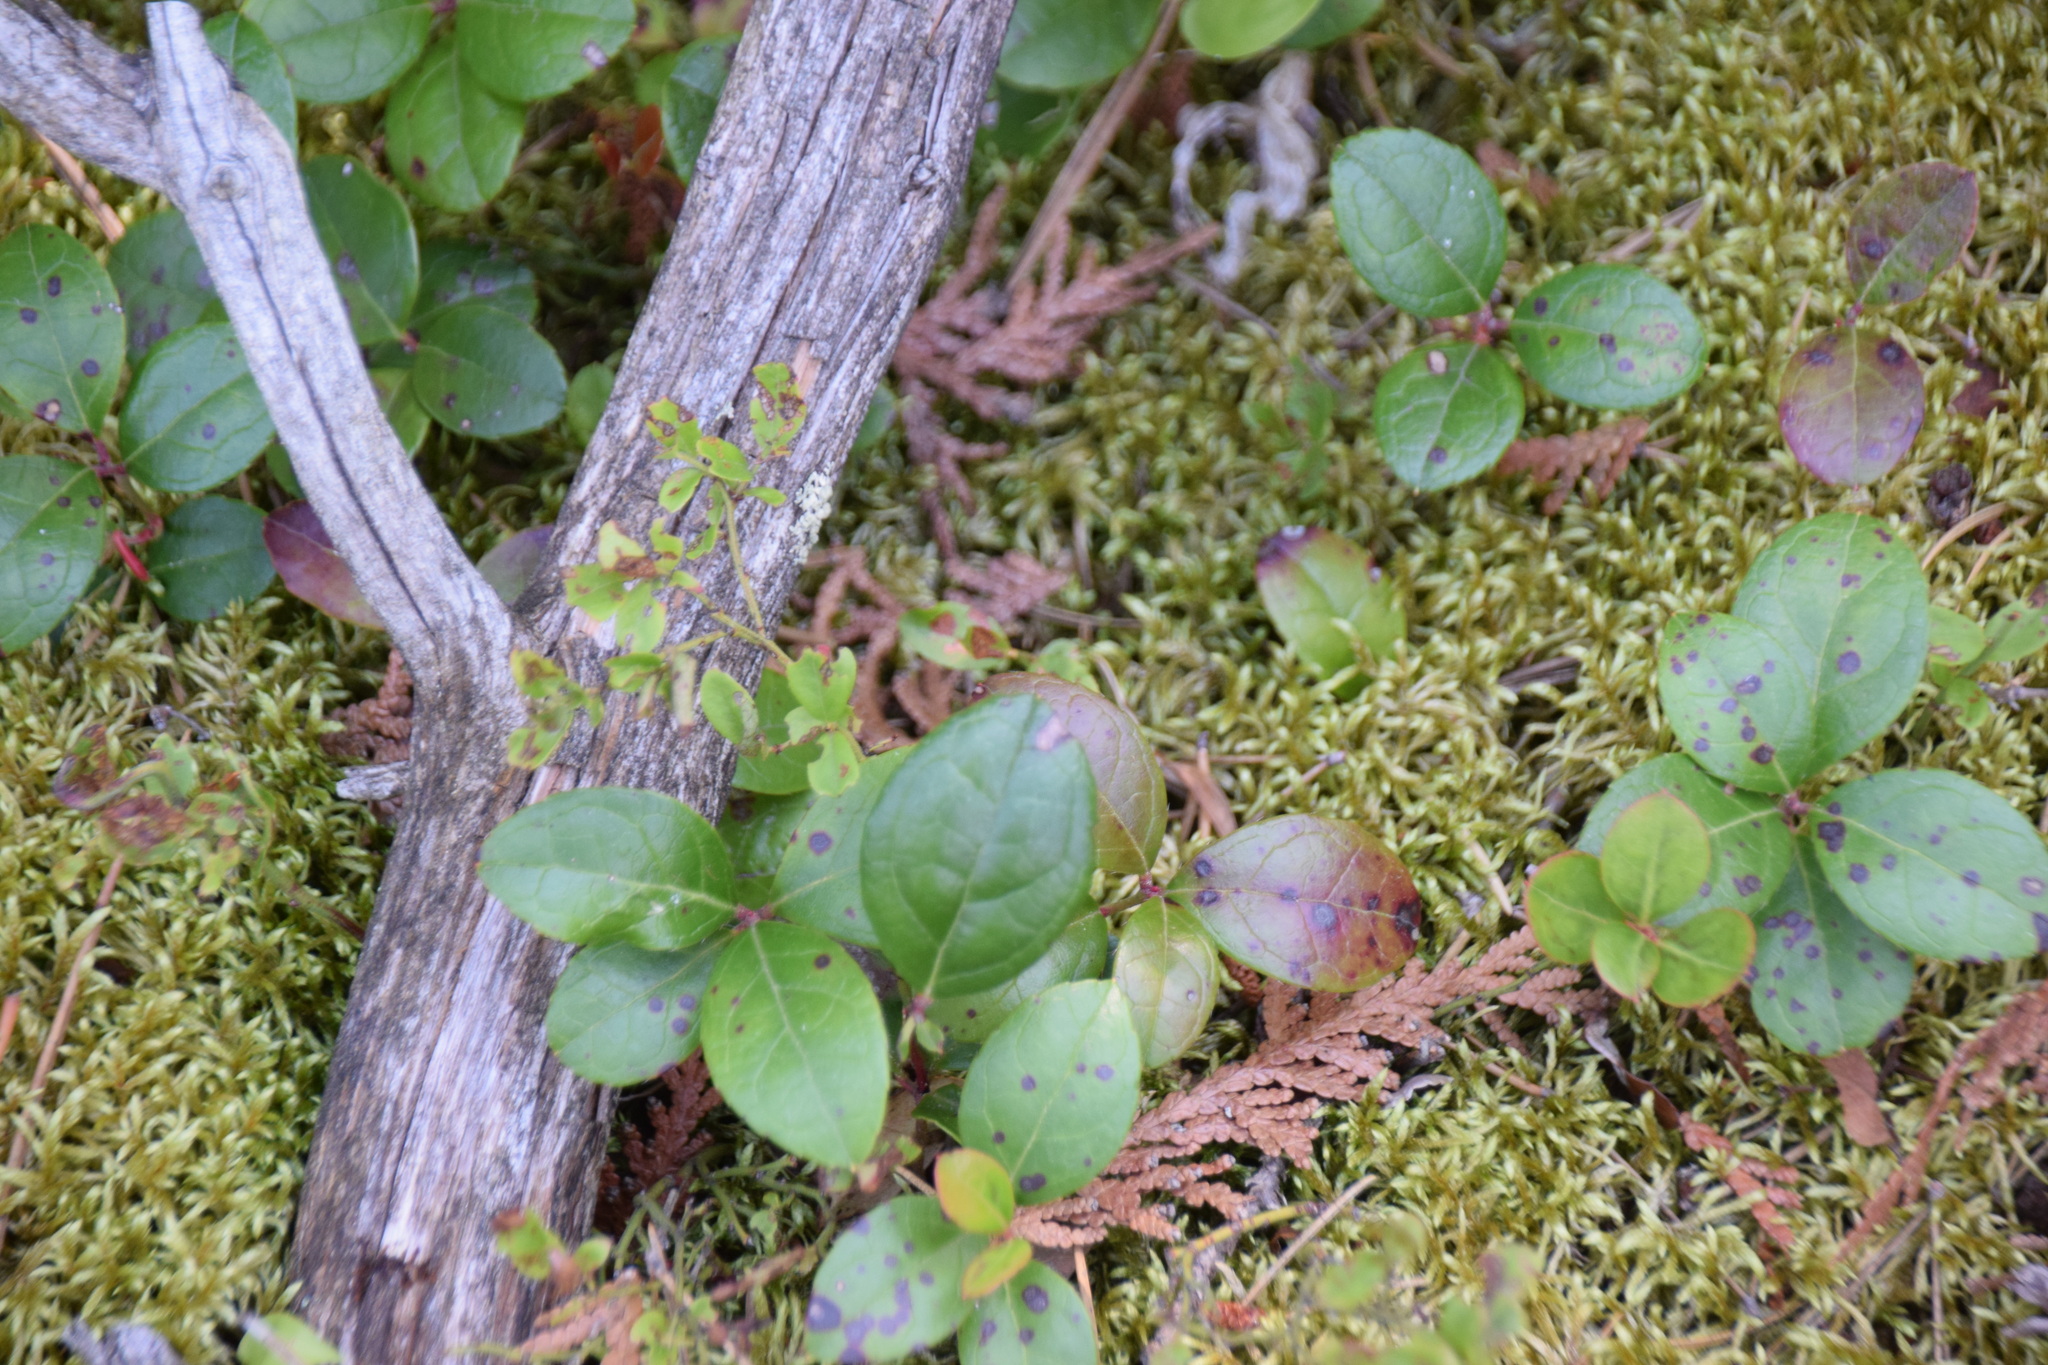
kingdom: Plantae
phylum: Tracheophyta
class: Magnoliopsida
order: Ericales
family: Ericaceae
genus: Gaultheria
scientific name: Gaultheria procumbens
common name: Checkerberry
